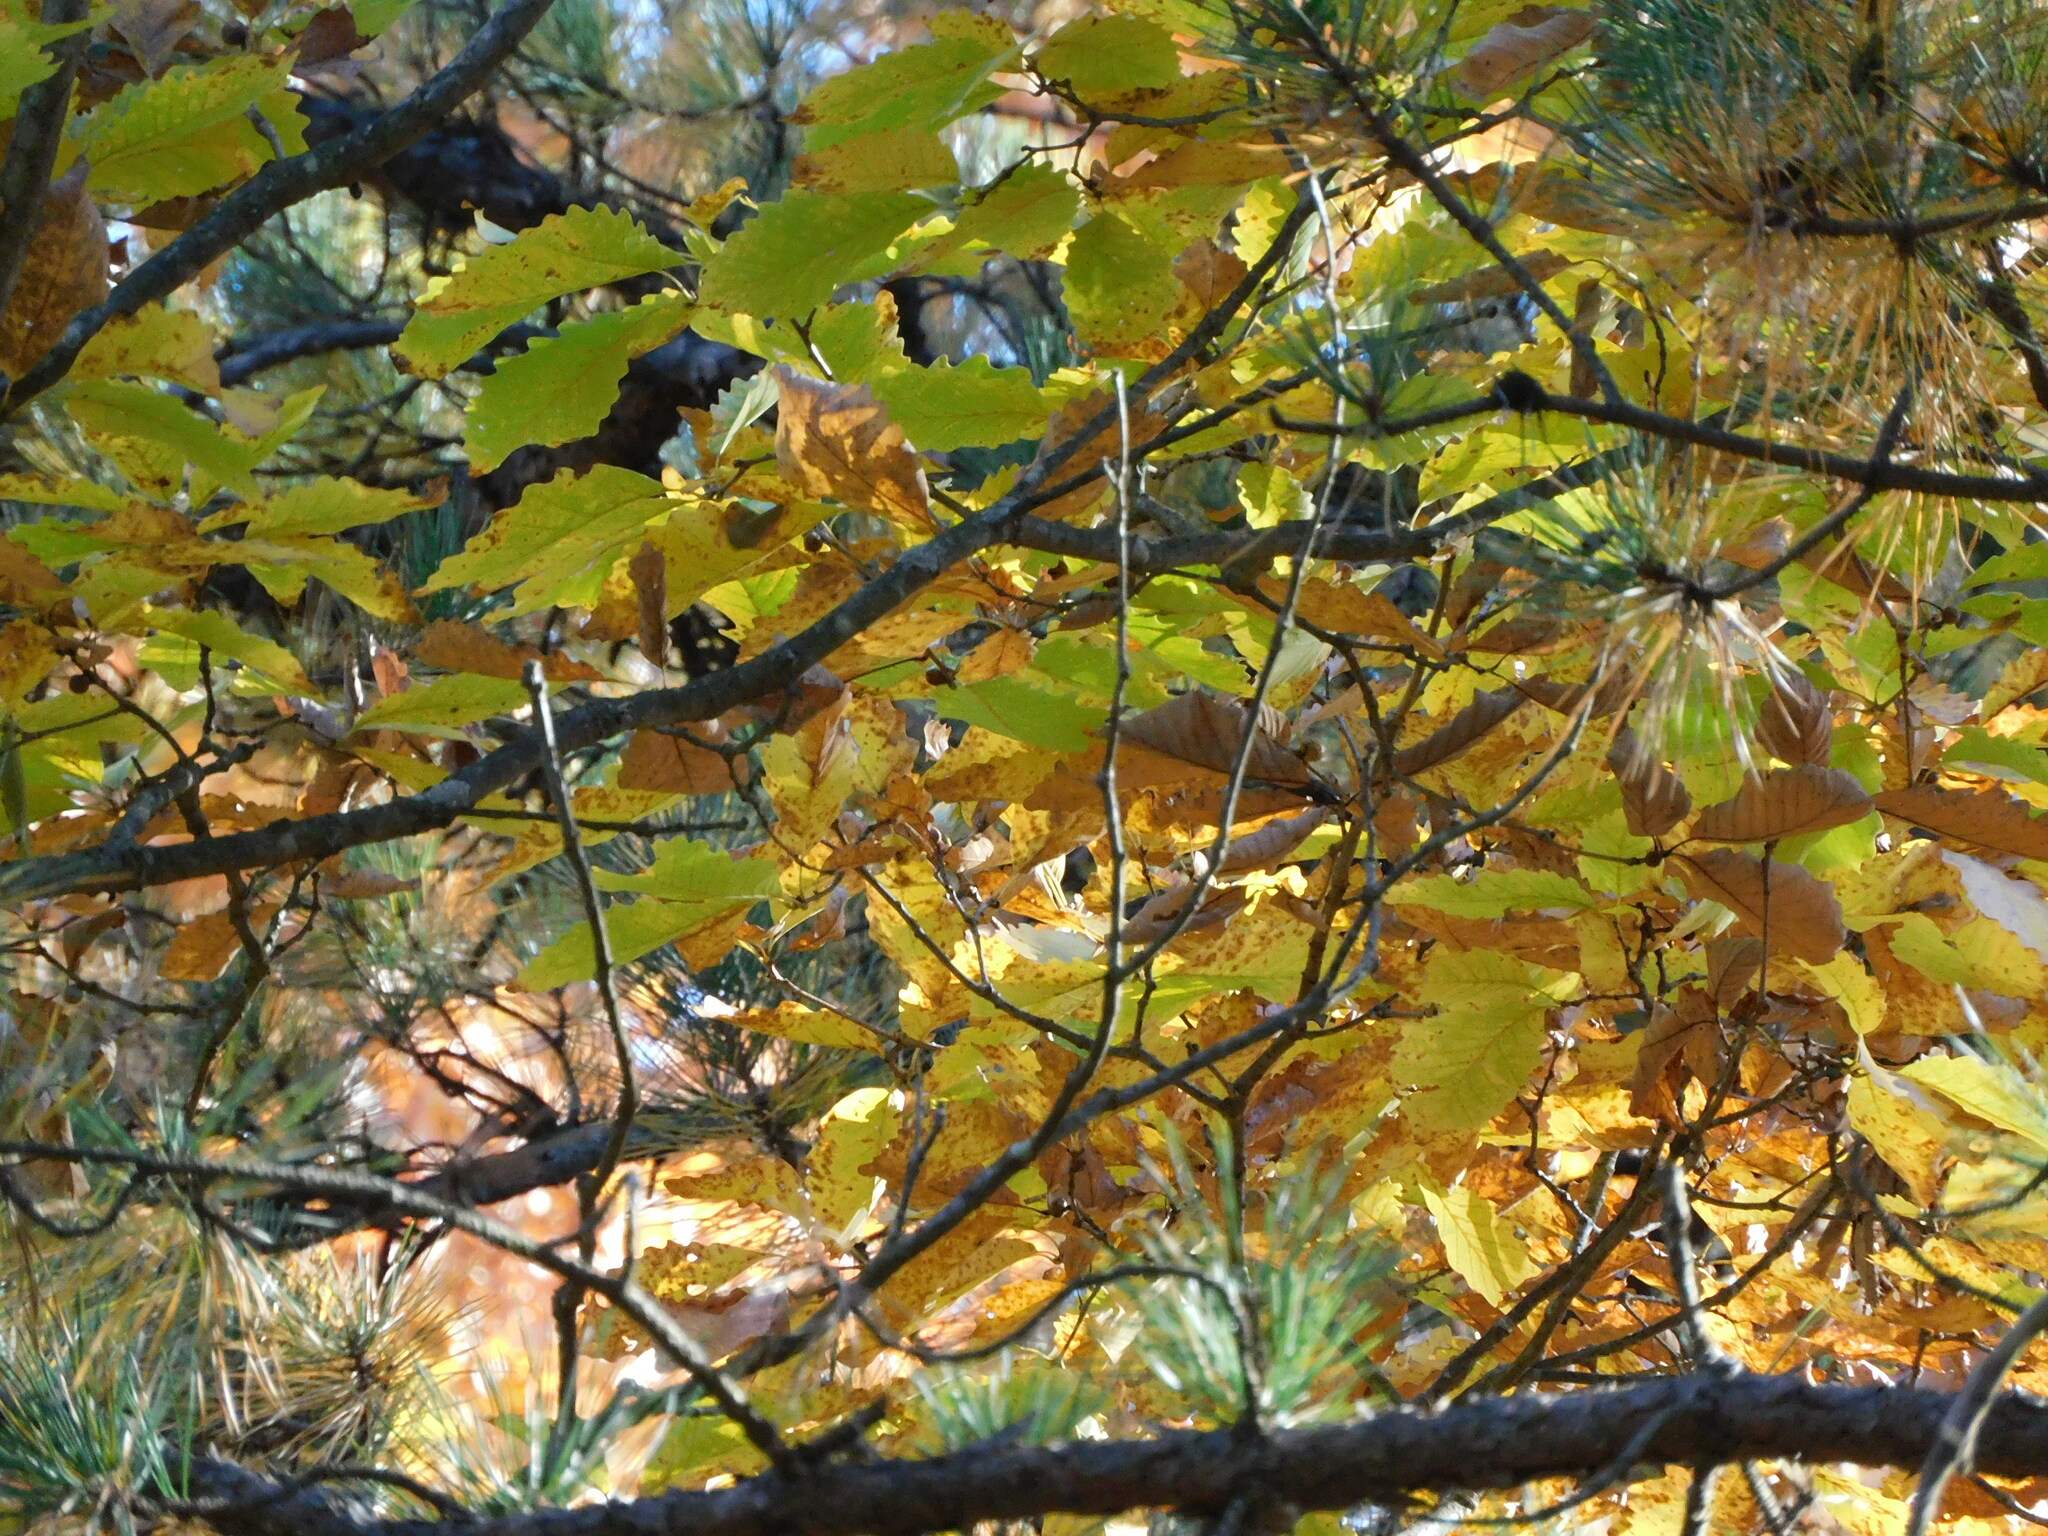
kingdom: Plantae
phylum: Tracheophyta
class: Magnoliopsida
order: Fagales
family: Fagaceae
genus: Quercus
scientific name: Quercus montana
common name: Chestnut oak
